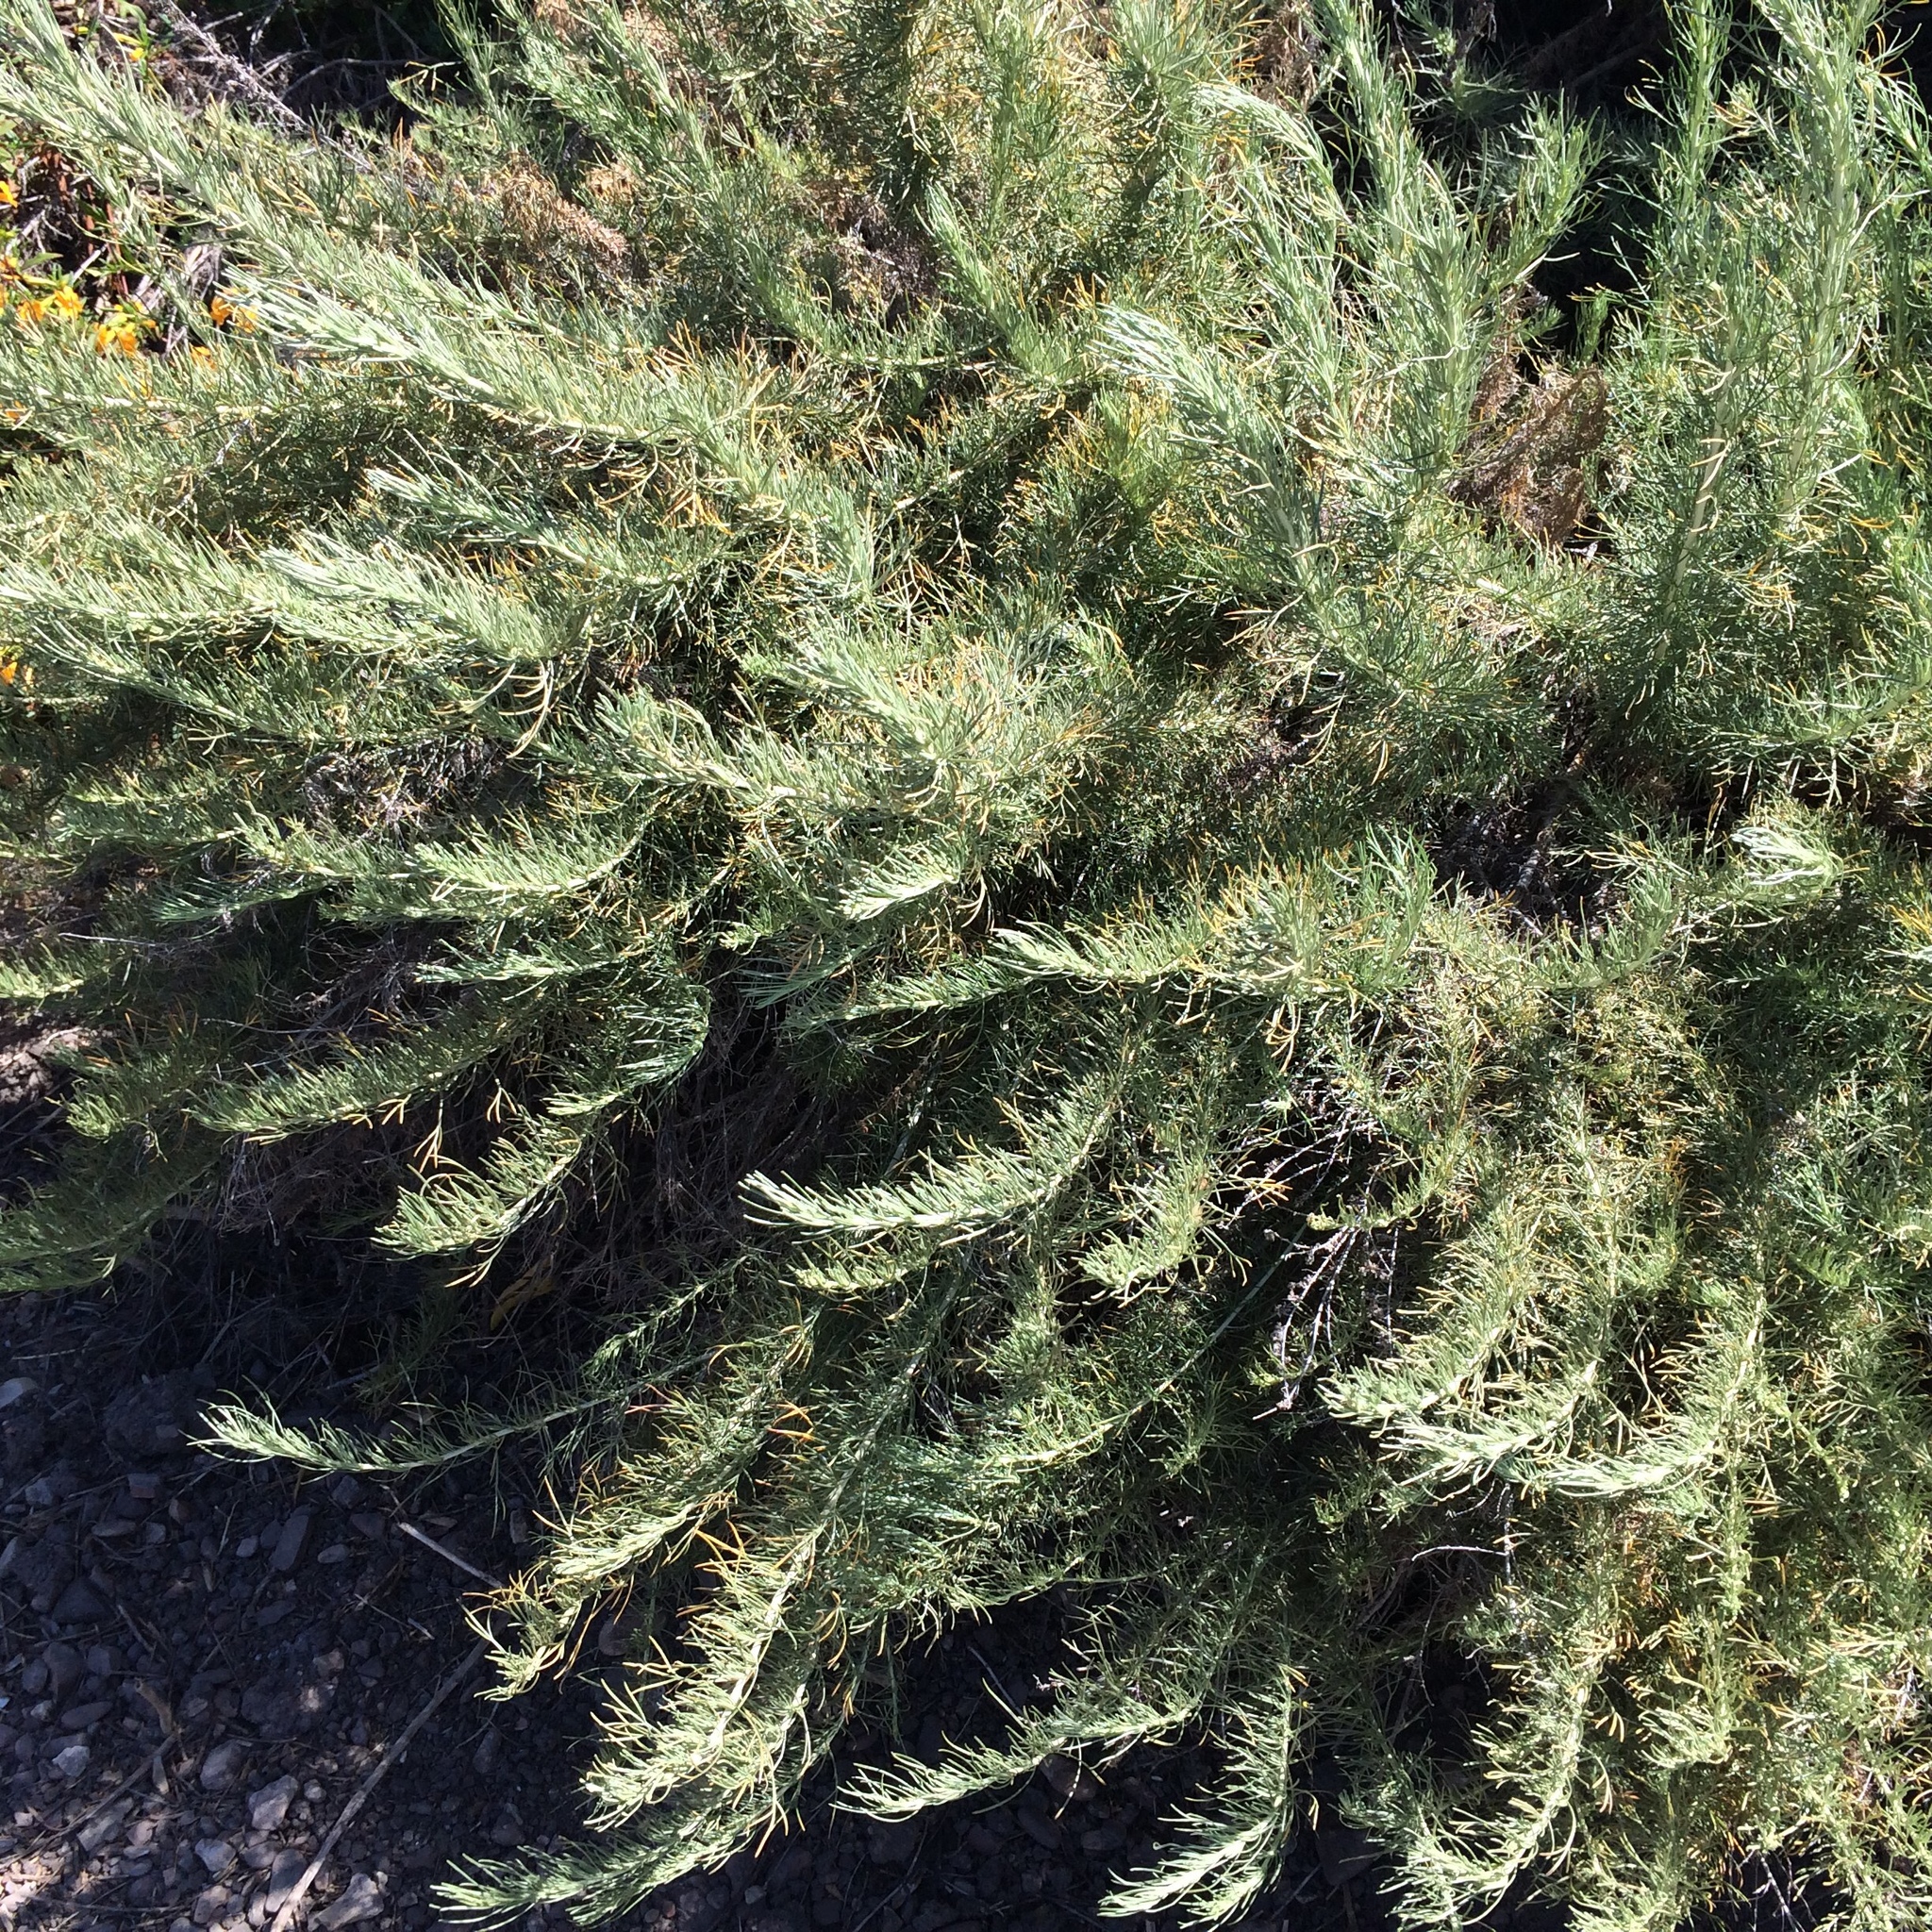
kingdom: Plantae
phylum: Tracheophyta
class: Magnoliopsida
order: Asterales
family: Asteraceae
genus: Artemisia
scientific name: Artemisia californica
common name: California sagebrush
